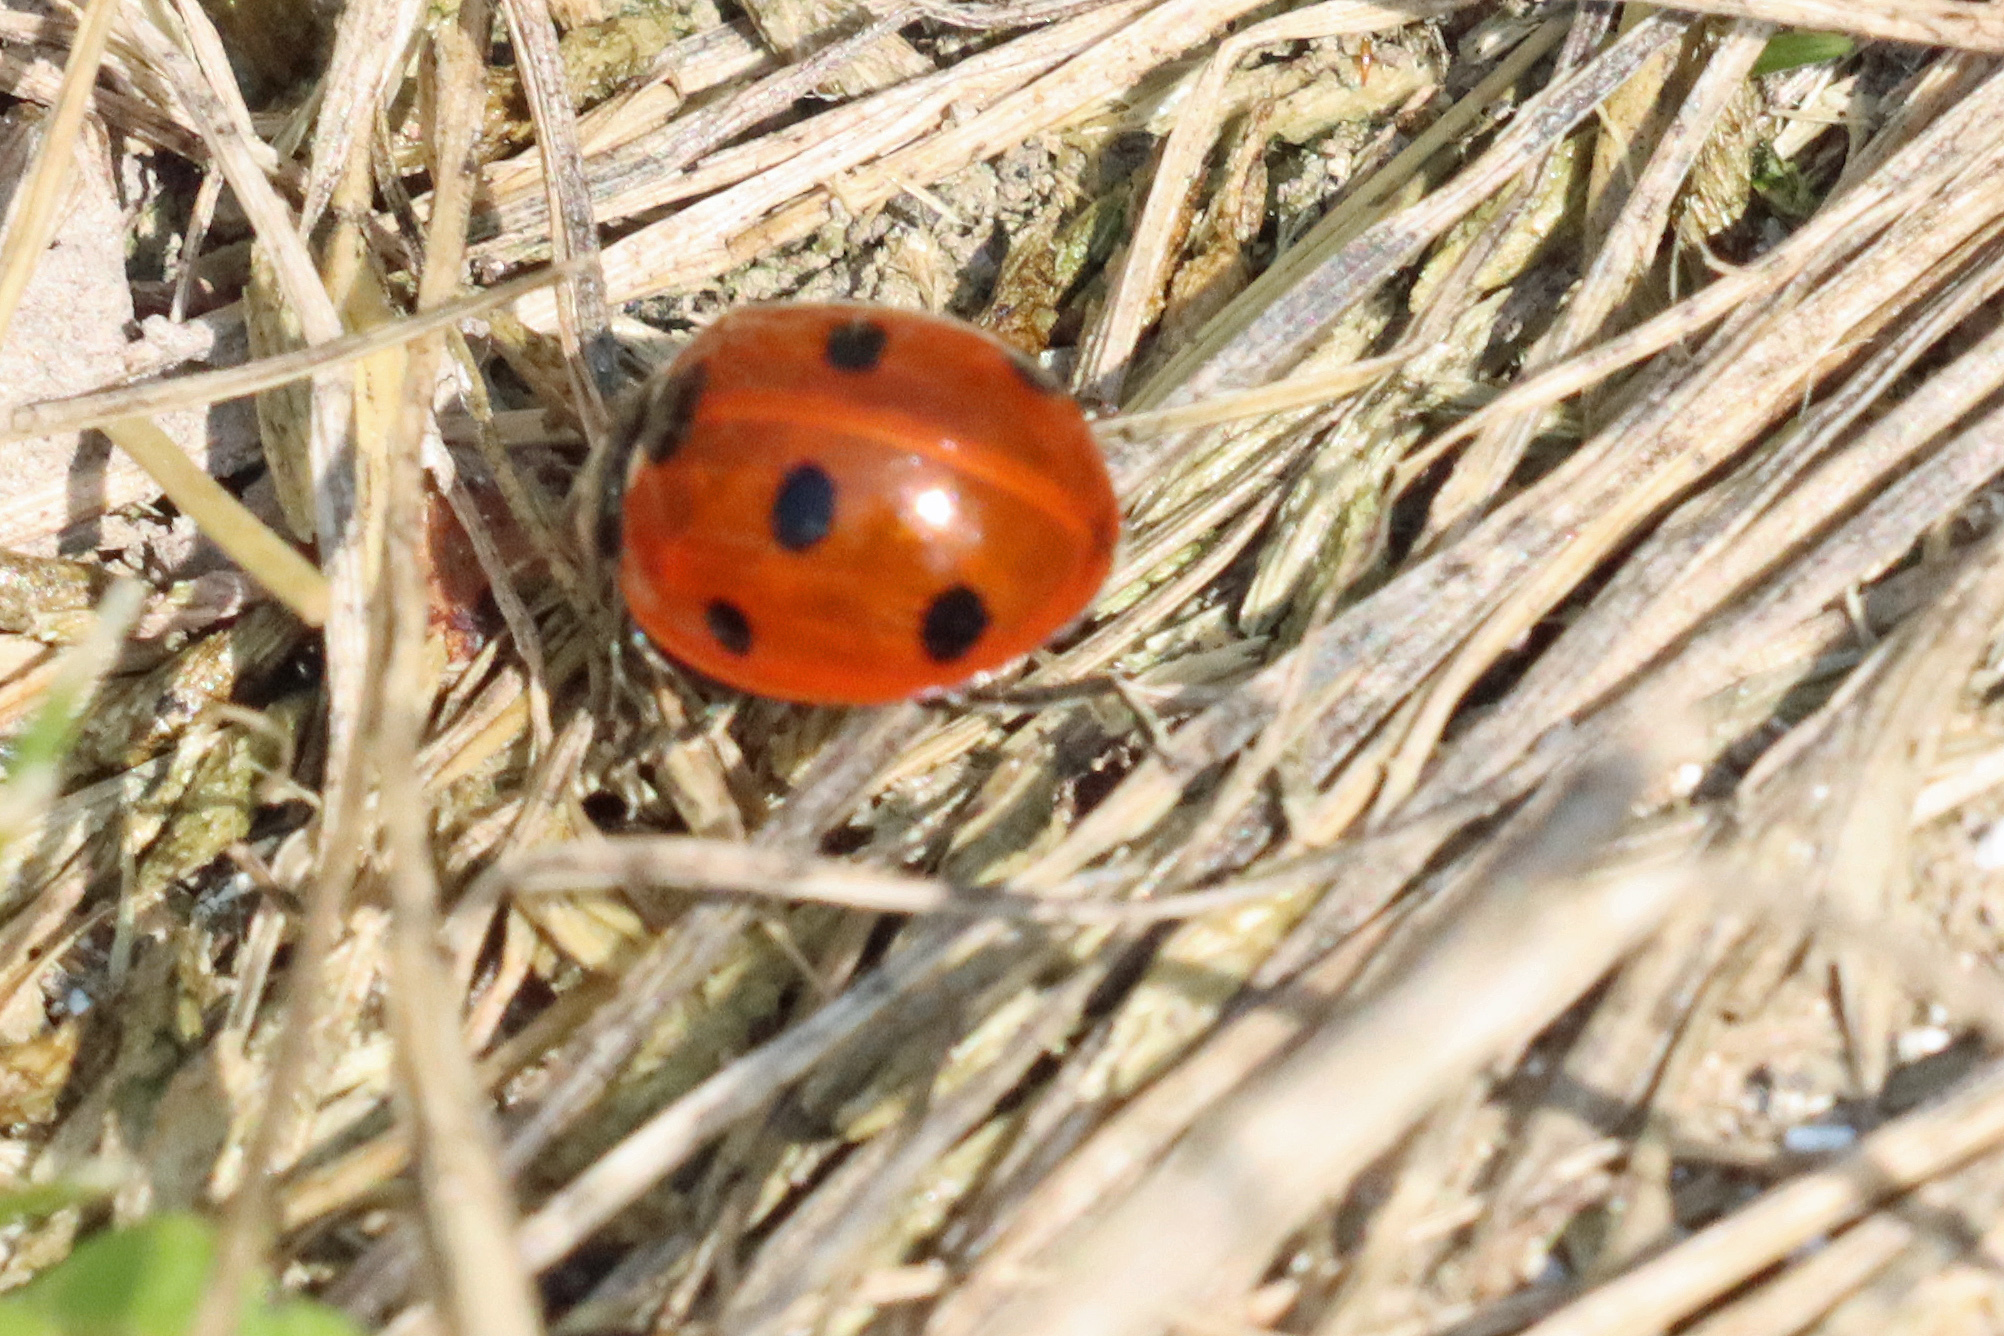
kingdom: Animalia
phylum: Arthropoda
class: Insecta
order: Coleoptera
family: Coccinellidae
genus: Coccinella
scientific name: Coccinella septempunctata
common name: Sevenspotted lady beetle
